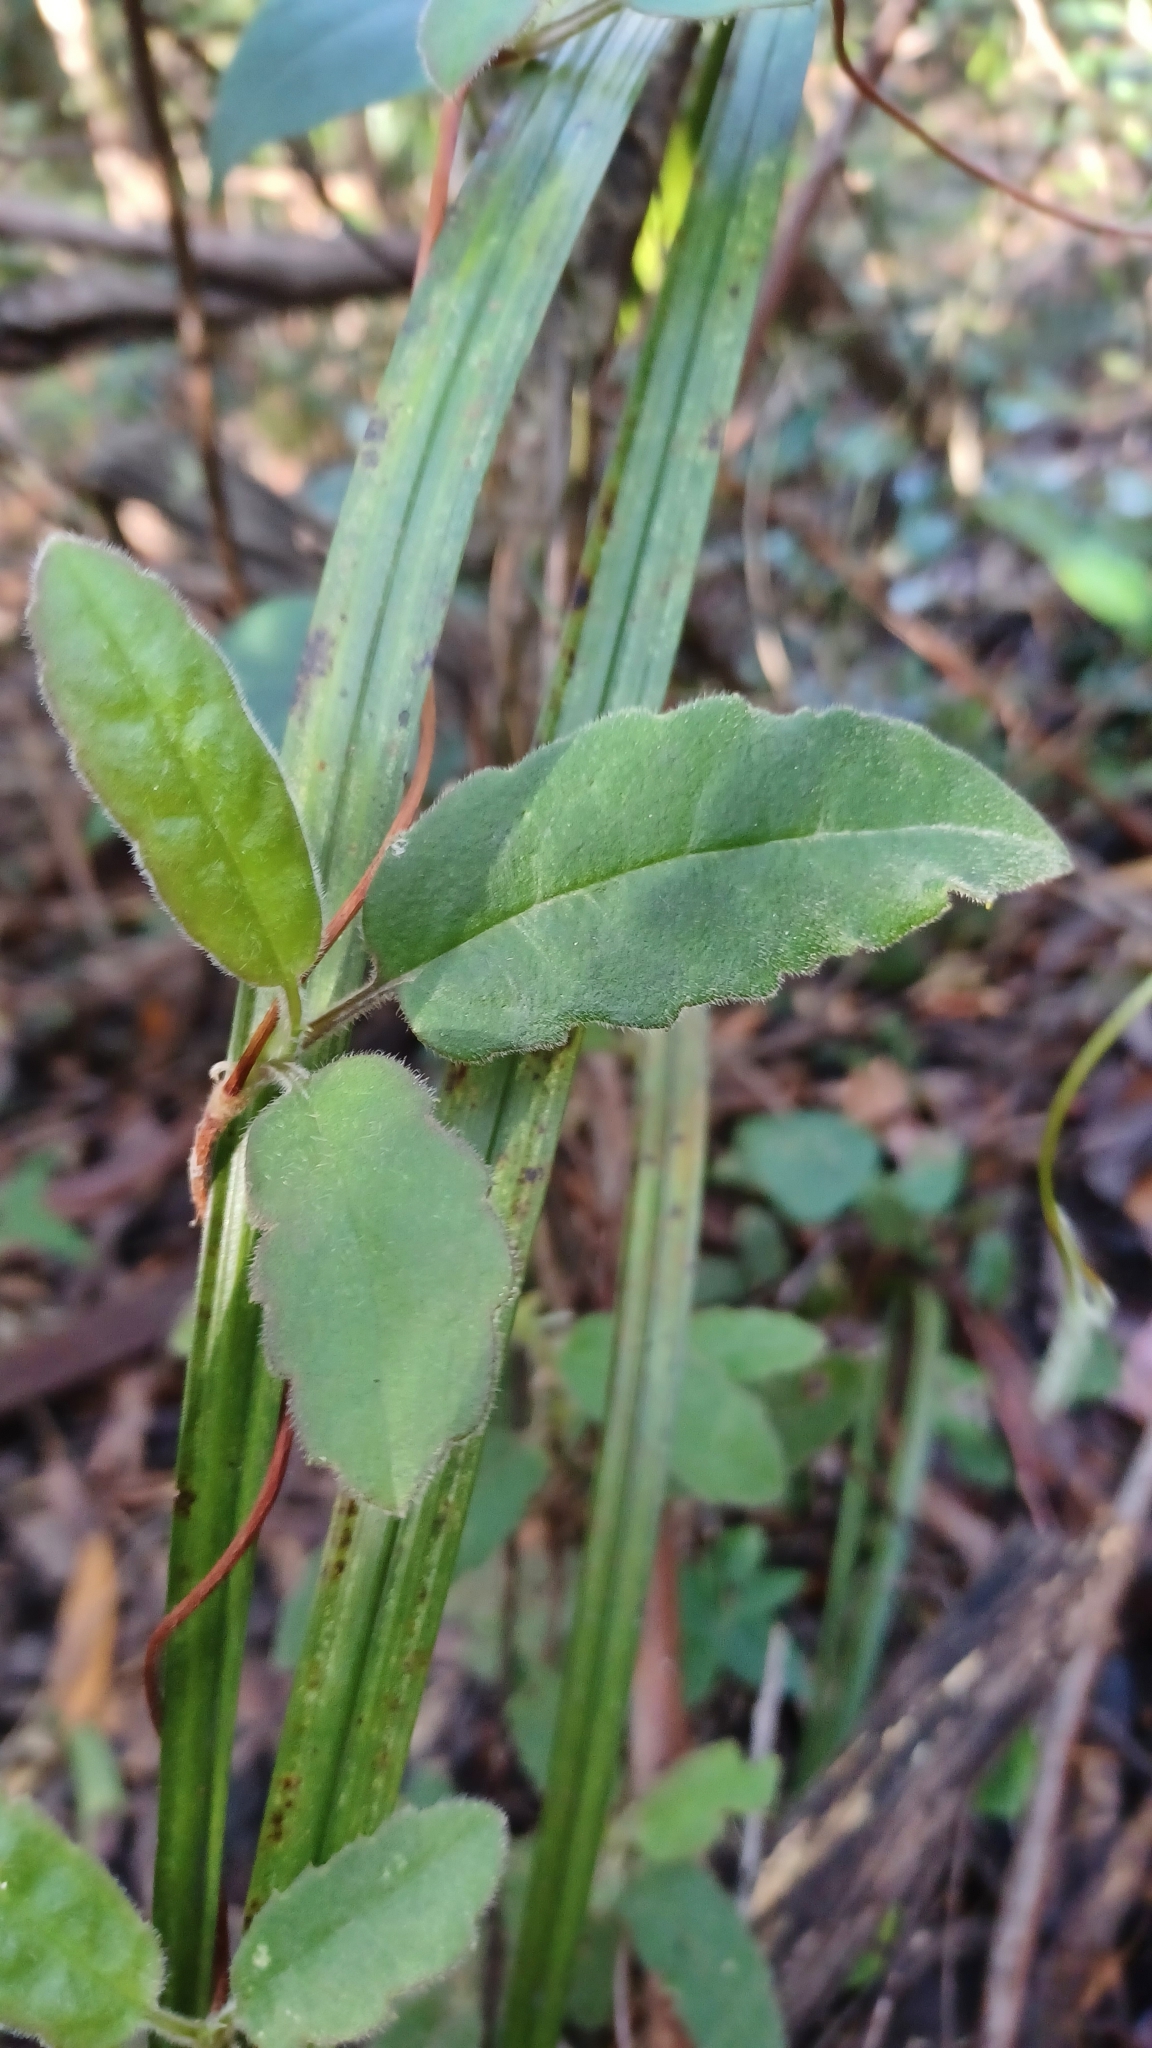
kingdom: Plantae
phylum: Tracheophyta
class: Magnoliopsida
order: Dilleniales
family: Dilleniaceae
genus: Hibbertia
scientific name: Hibbertia dentata
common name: Trailing guinea-flower
